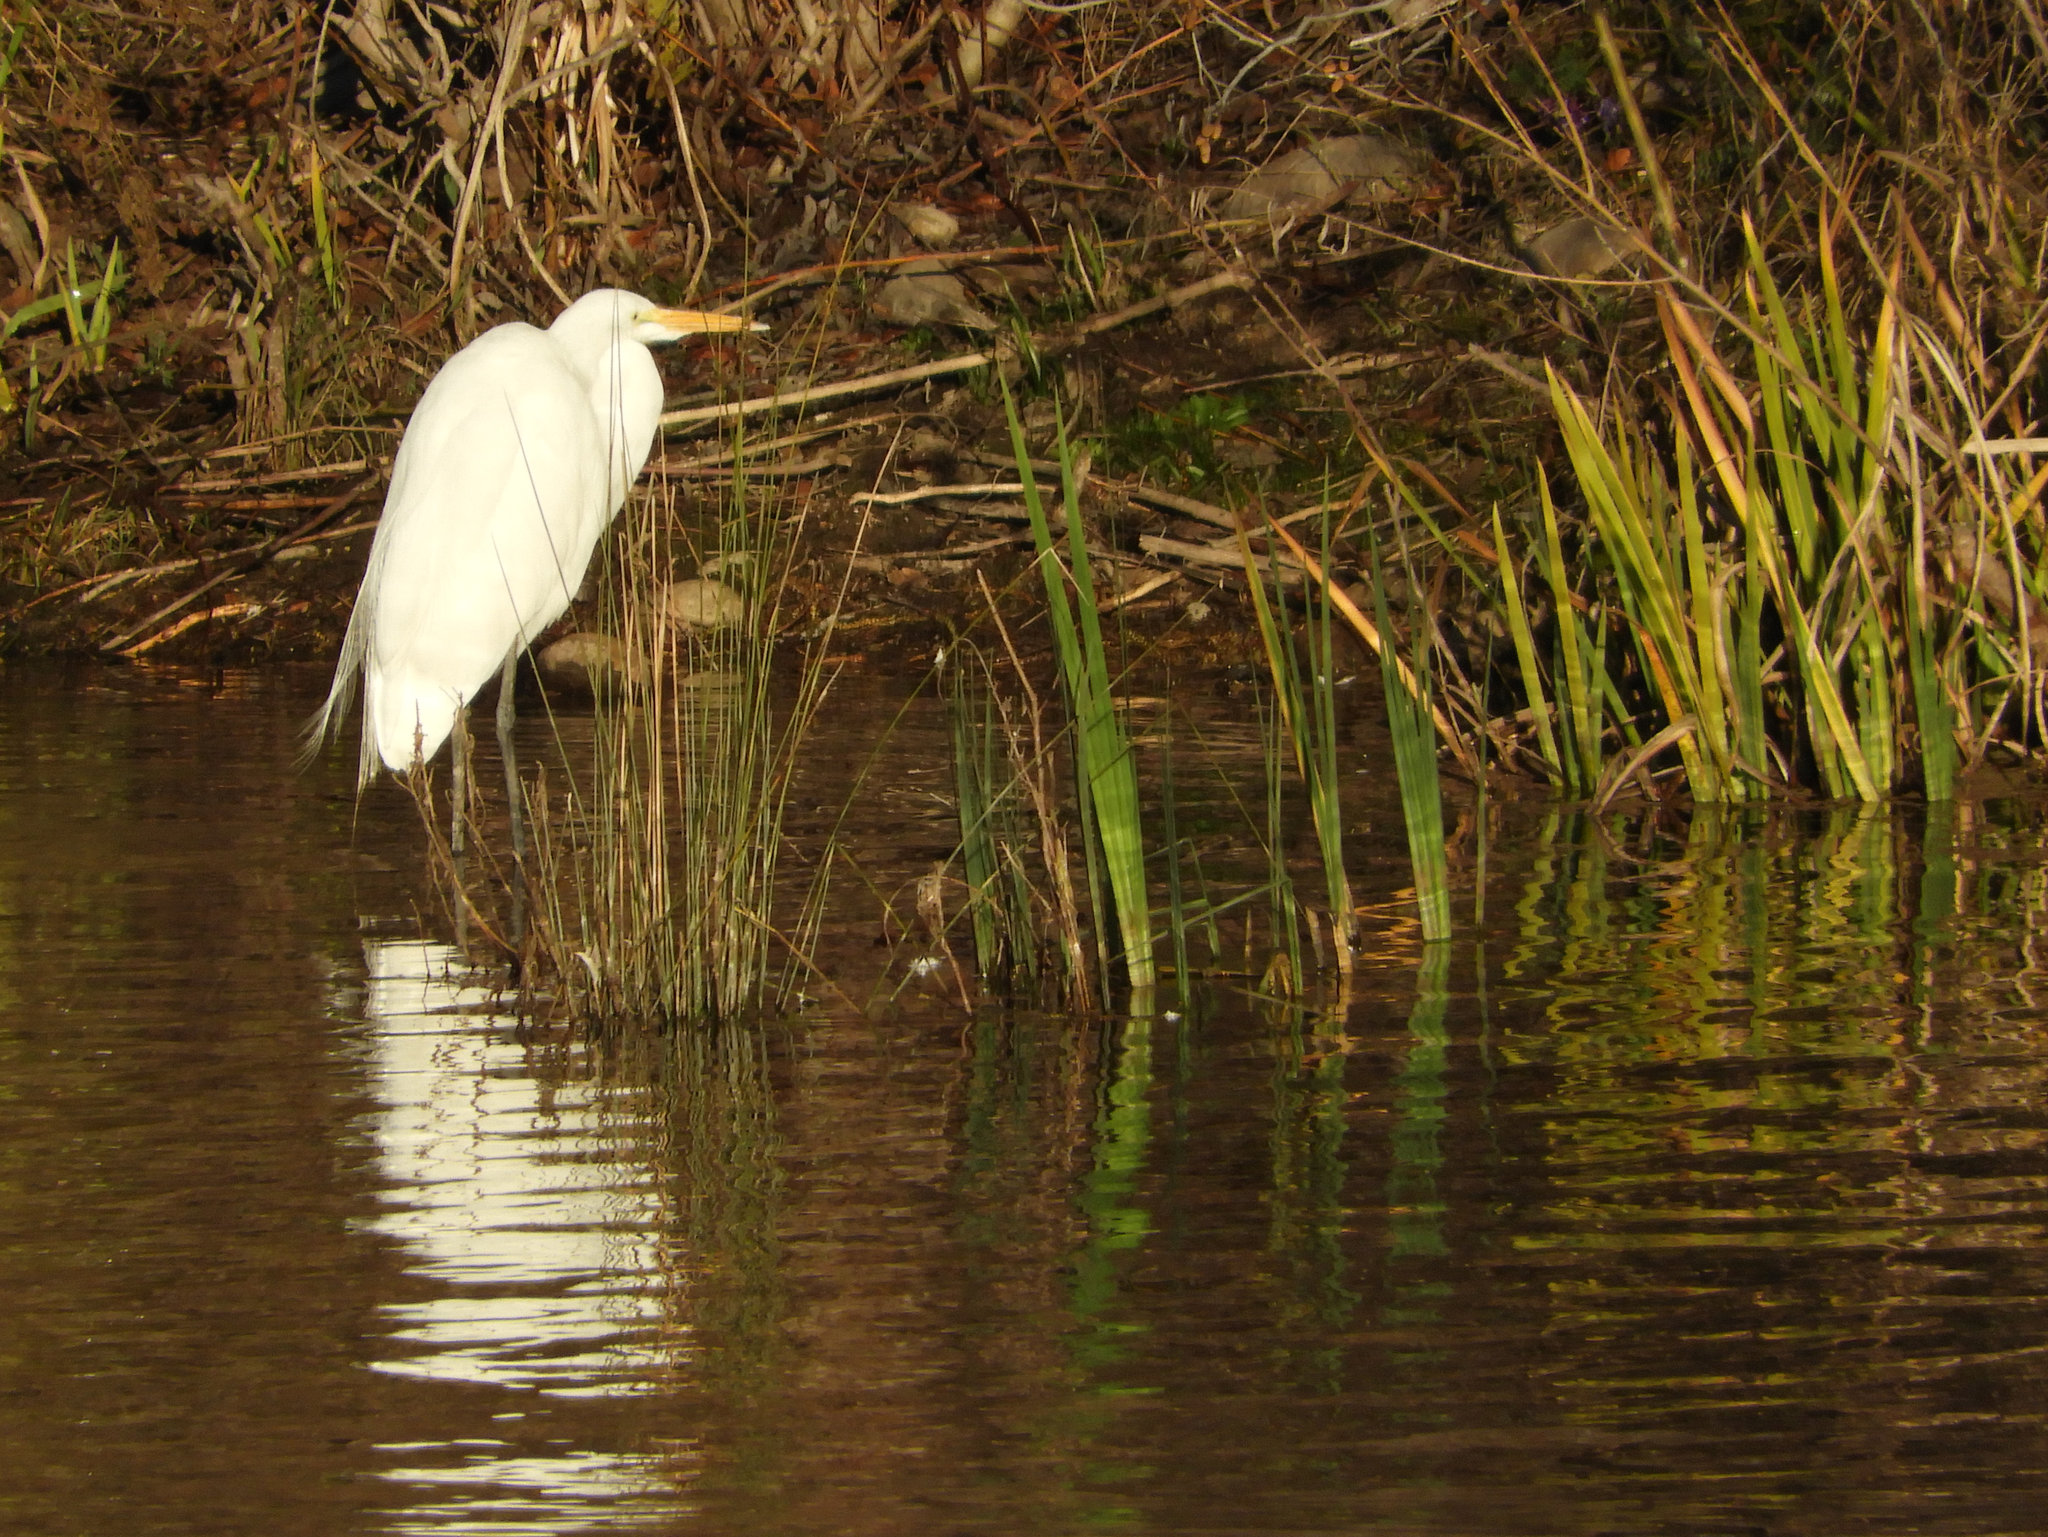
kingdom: Animalia
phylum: Chordata
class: Aves
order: Pelecaniformes
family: Ardeidae
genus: Ardea
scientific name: Ardea alba
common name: Great egret
